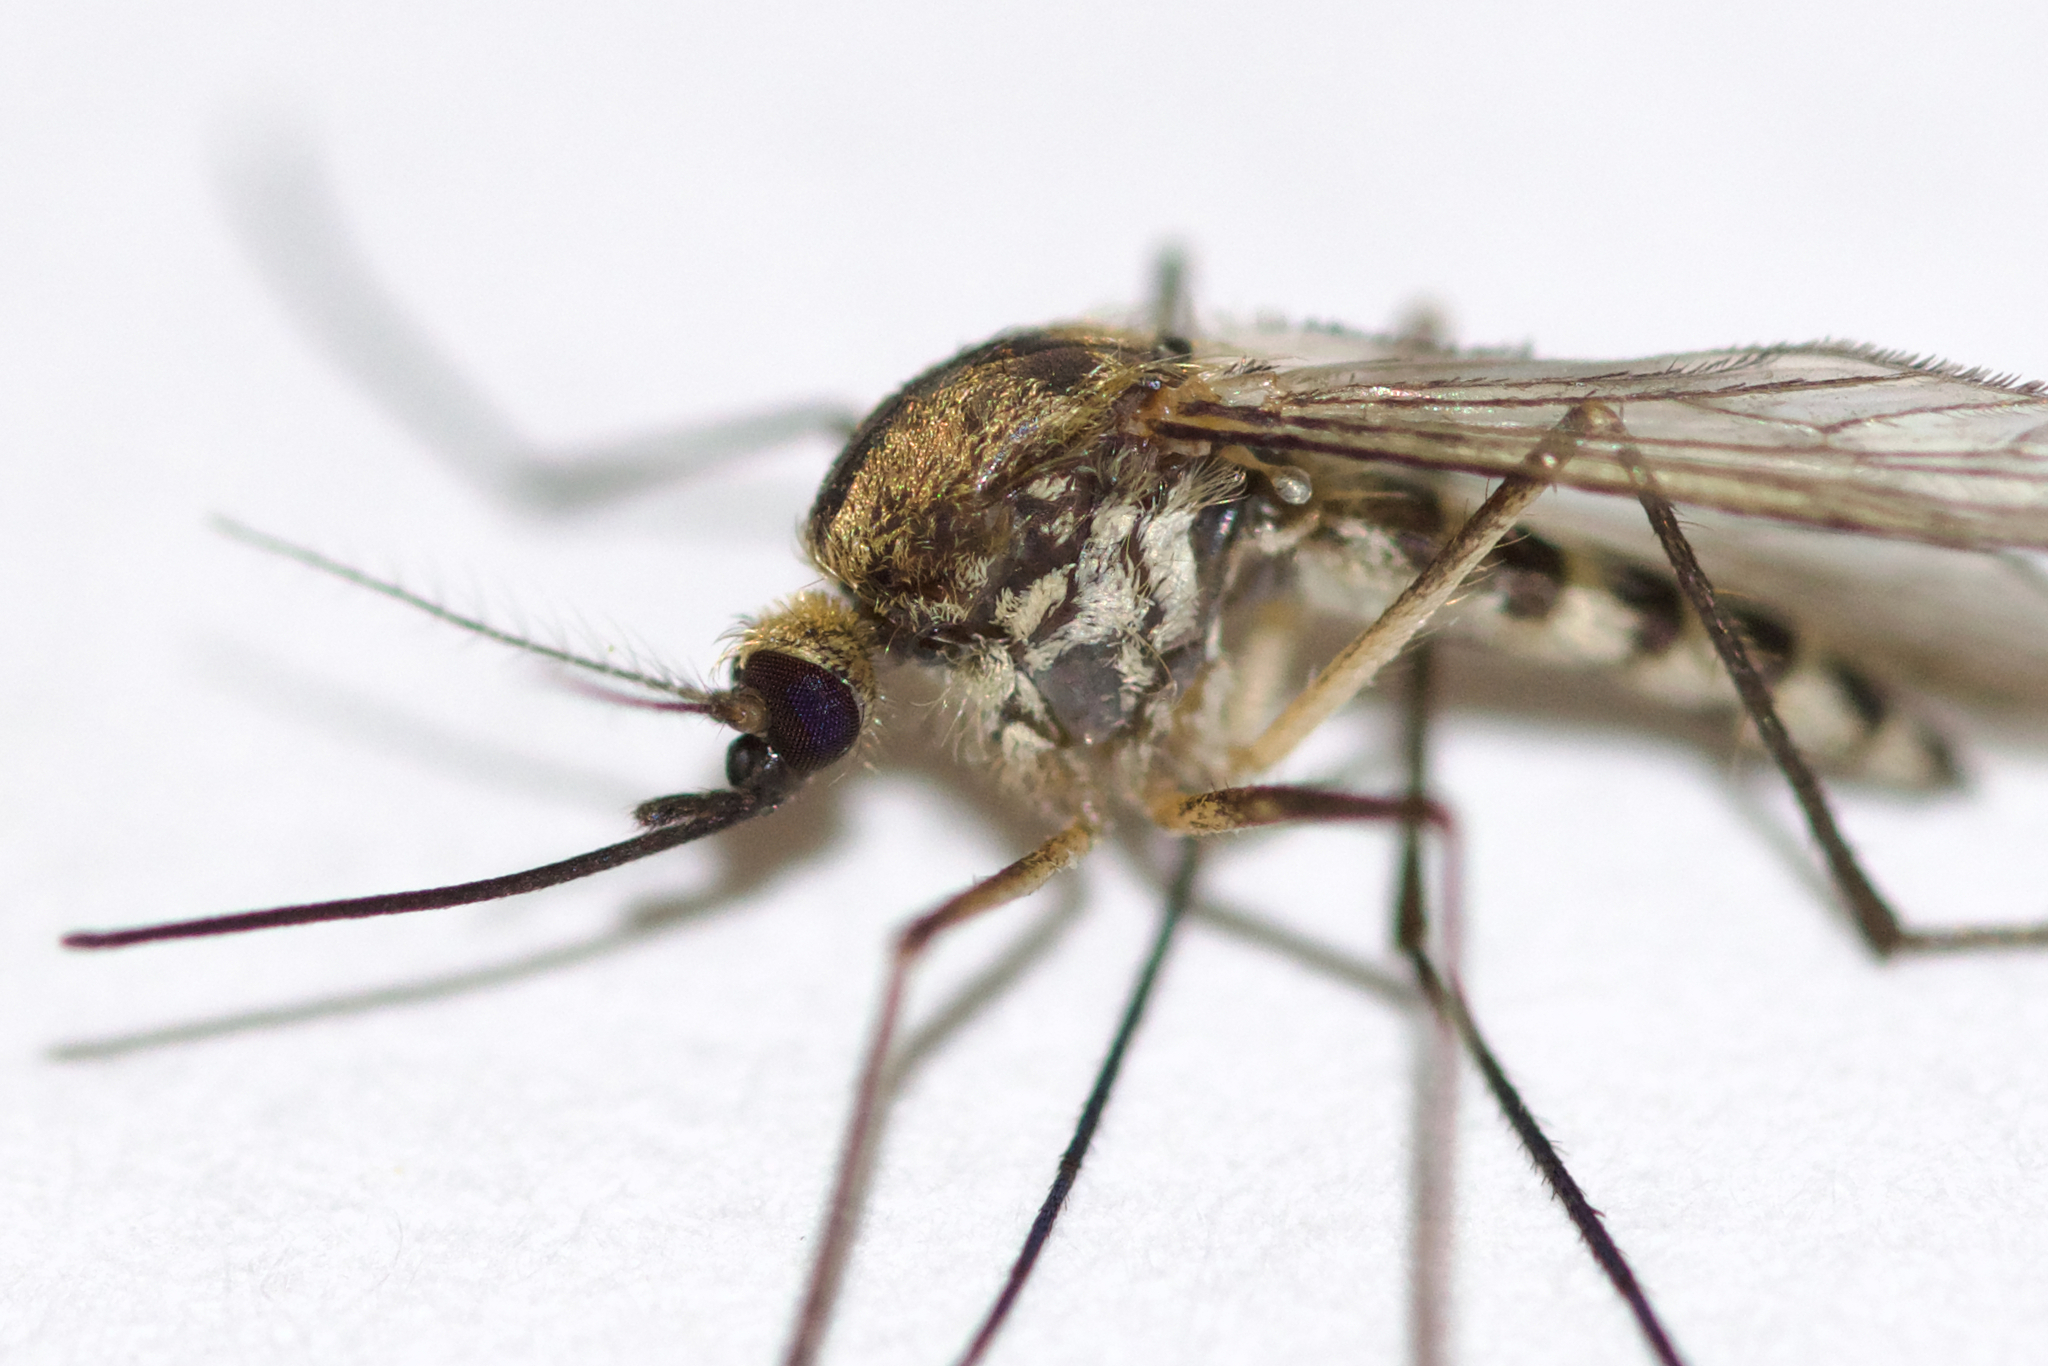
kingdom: Animalia
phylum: Arthropoda
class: Insecta
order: Diptera
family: Culicidae
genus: Aedes
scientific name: Aedes punctor
